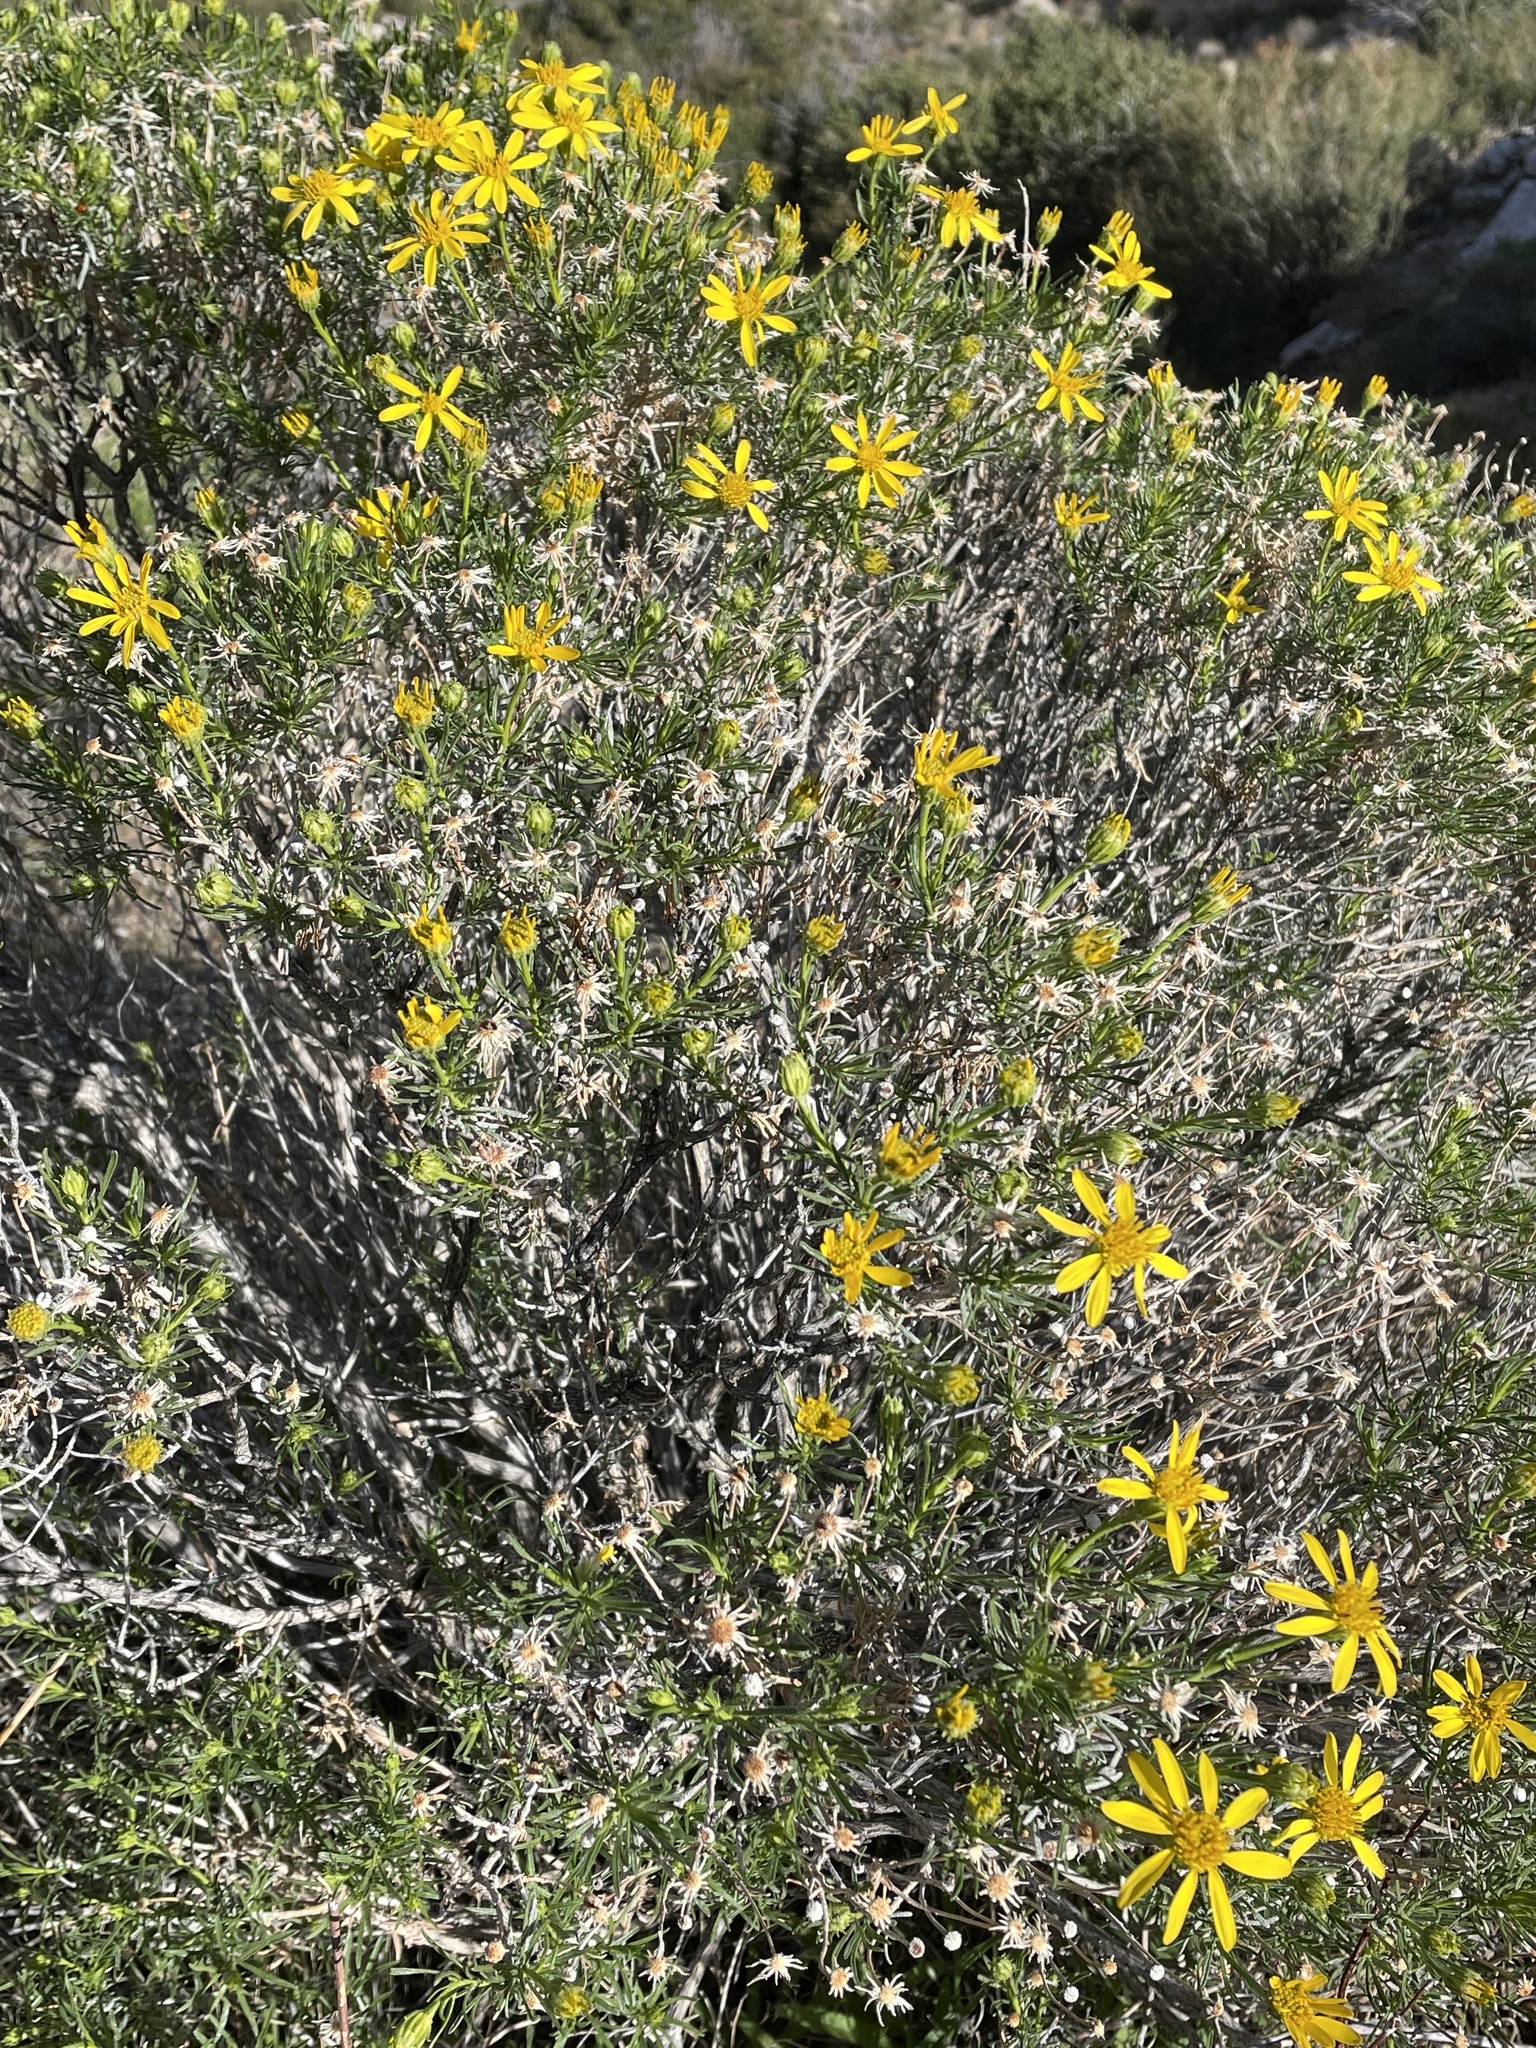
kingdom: Plantae
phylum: Tracheophyta
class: Magnoliopsida
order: Asterales
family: Asteraceae
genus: Ericameria
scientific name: Ericameria linearifolia
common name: Interior goldenbush
